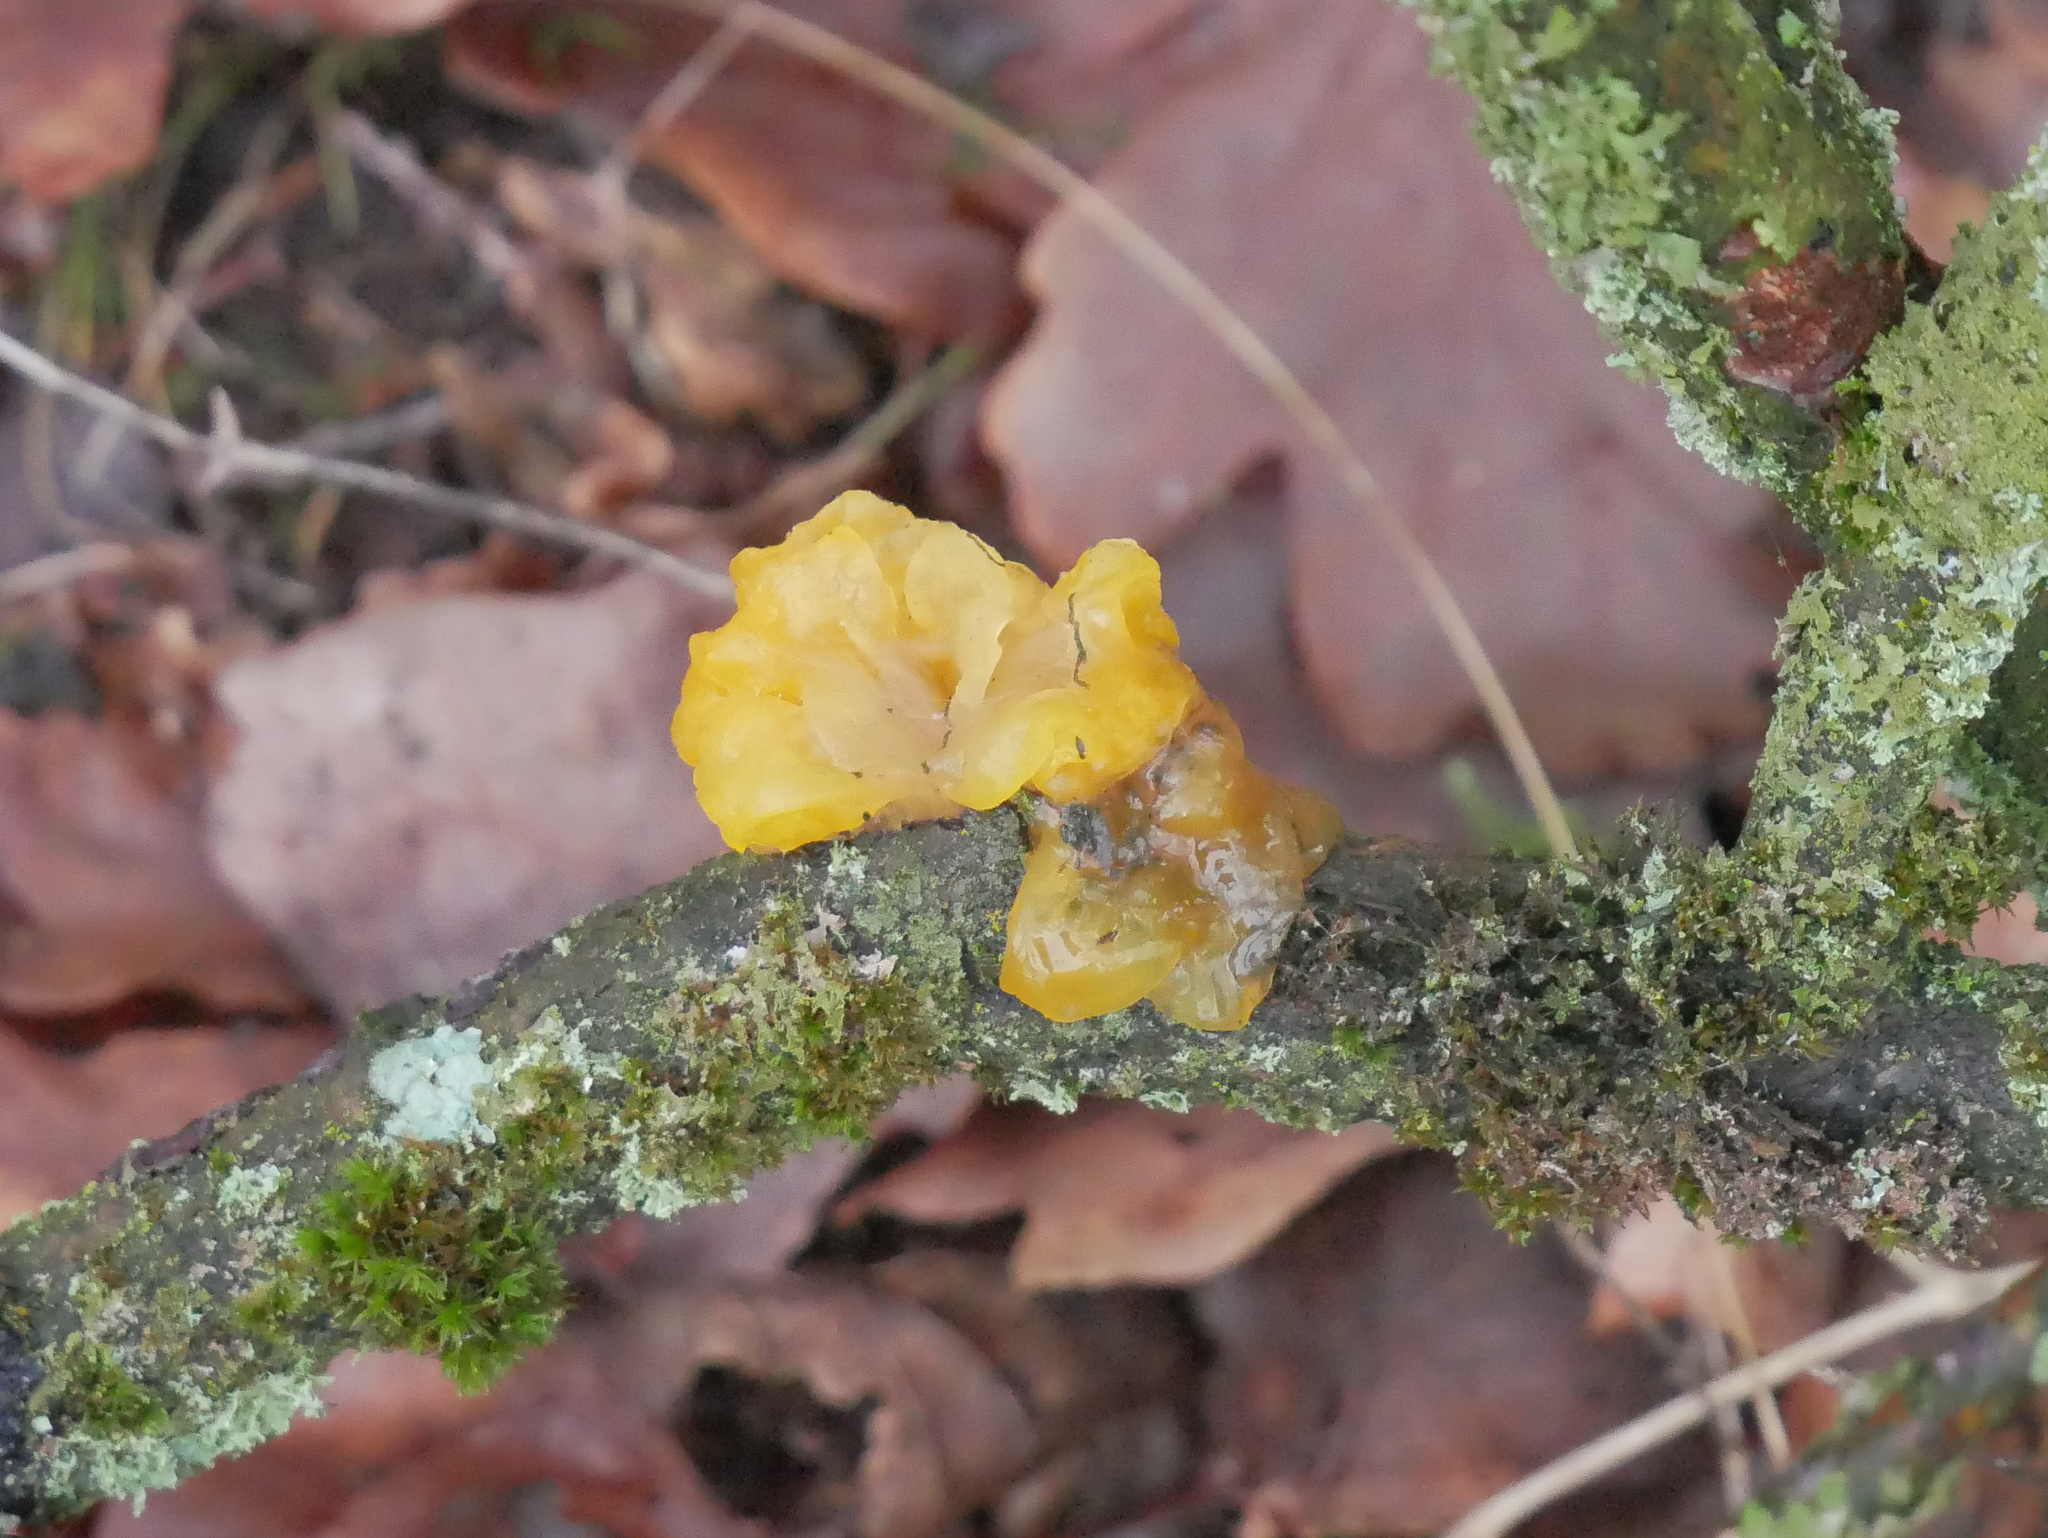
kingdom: Fungi
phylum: Basidiomycota
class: Tremellomycetes
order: Tremellales
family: Tremellaceae
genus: Tremella
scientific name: Tremella mesenterica
